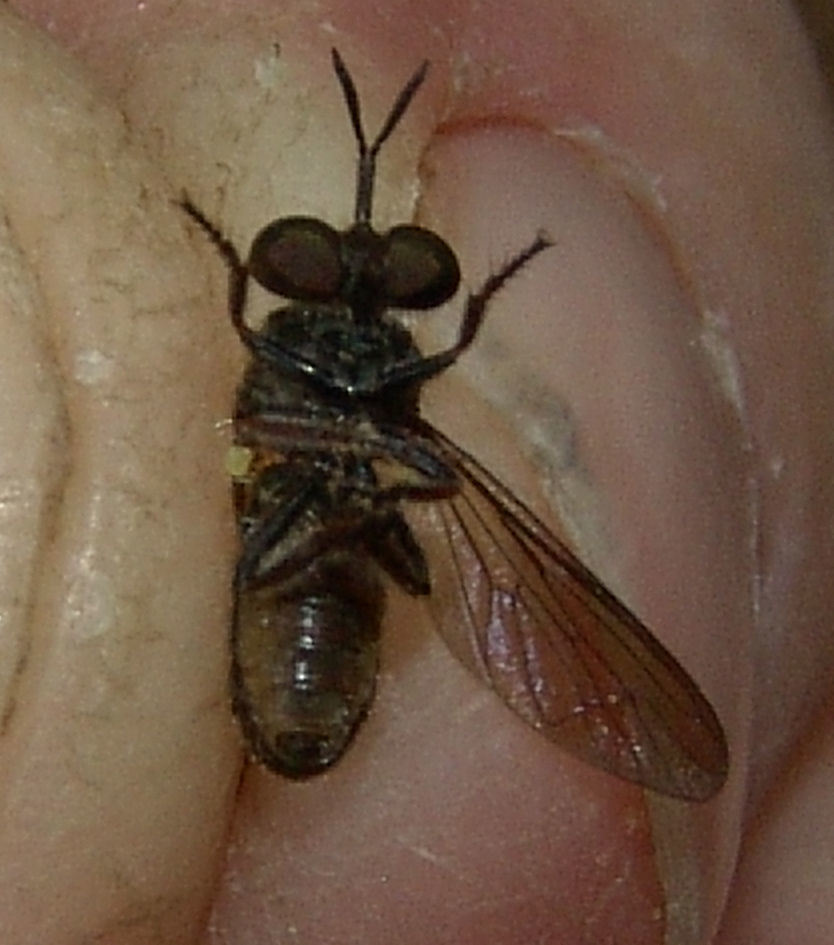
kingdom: Animalia
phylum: Arthropoda
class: Insecta
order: Diptera
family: Asilidae
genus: Cerotainia
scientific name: Cerotainia
